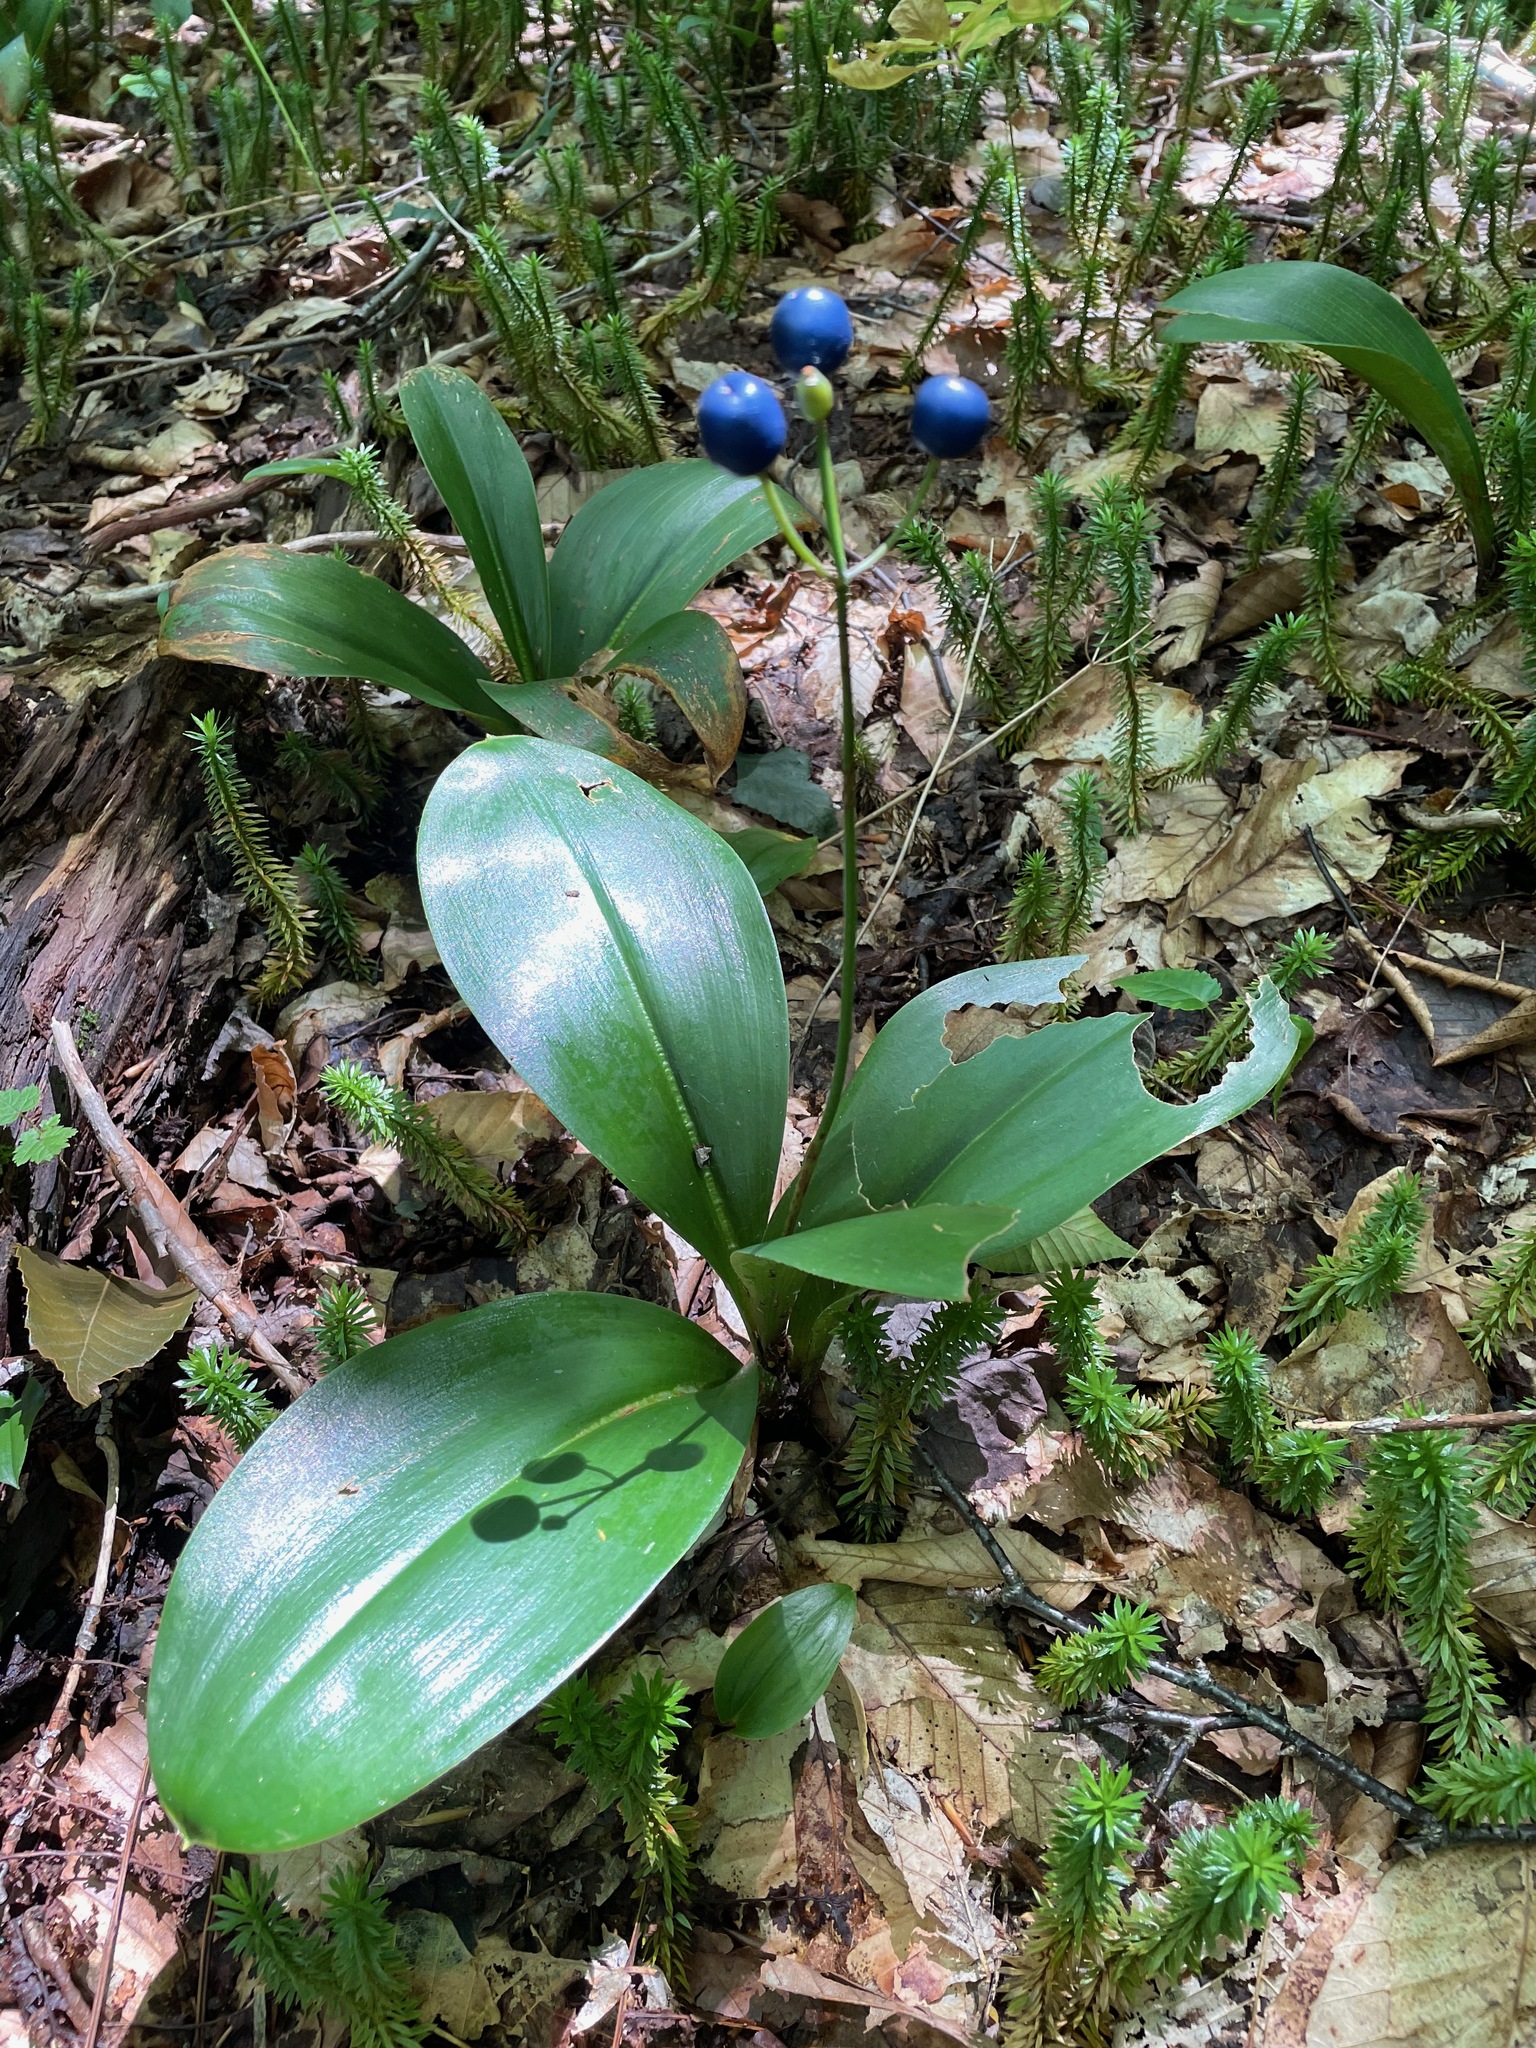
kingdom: Plantae
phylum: Tracheophyta
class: Liliopsida
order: Liliales
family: Liliaceae
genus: Clintonia
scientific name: Clintonia borealis
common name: Yellow clintonia
